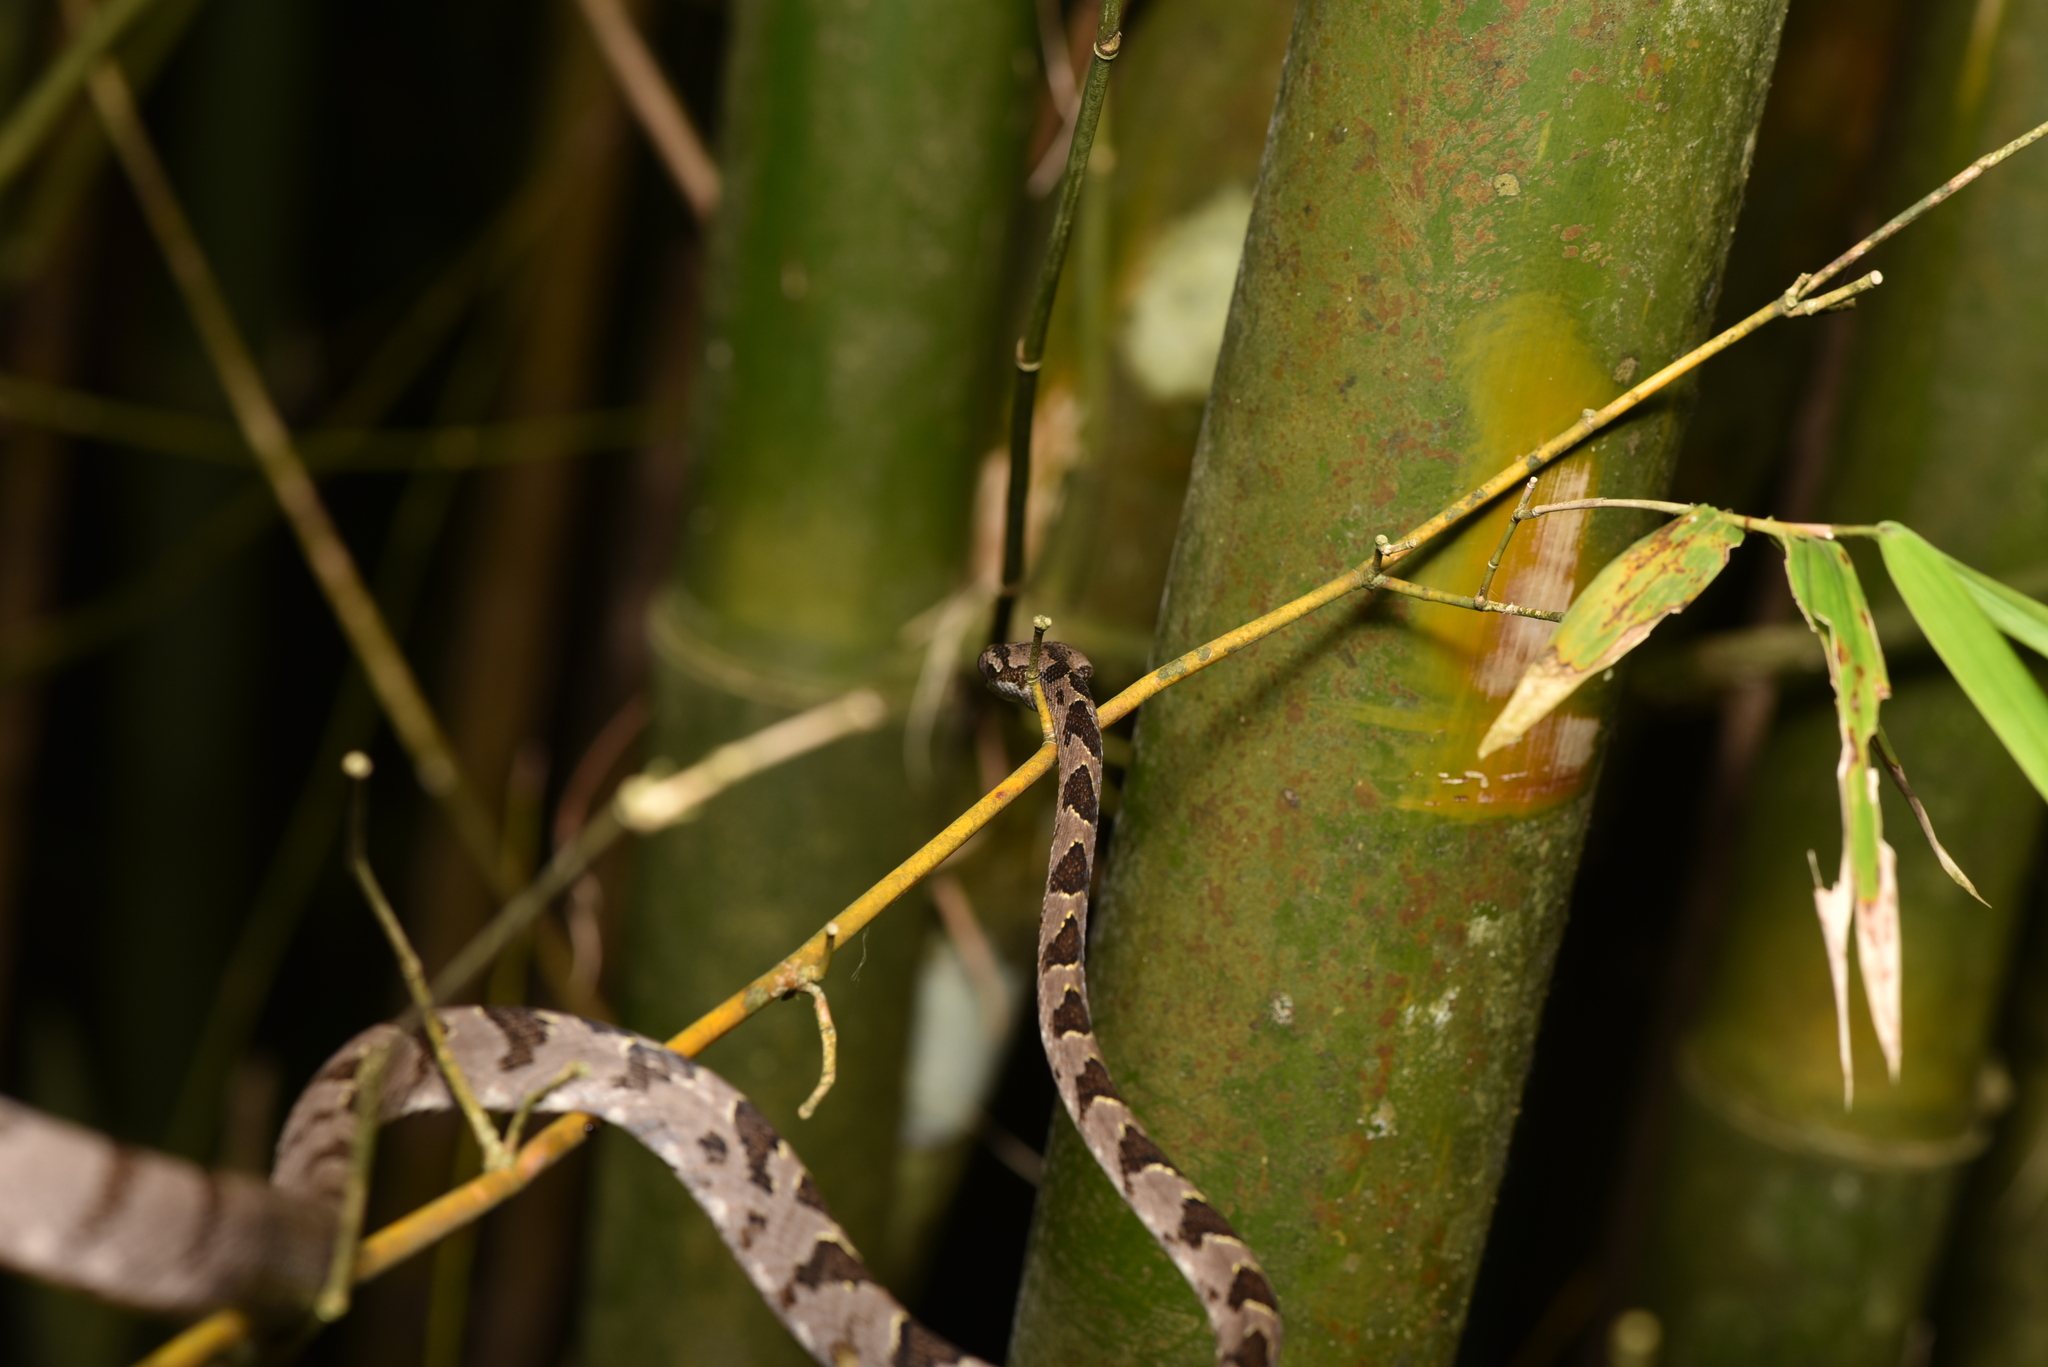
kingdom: Animalia
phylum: Chordata
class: Squamata
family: Colubridae
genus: Boiga
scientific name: Boiga kraepelini
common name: Kelung cat snake
